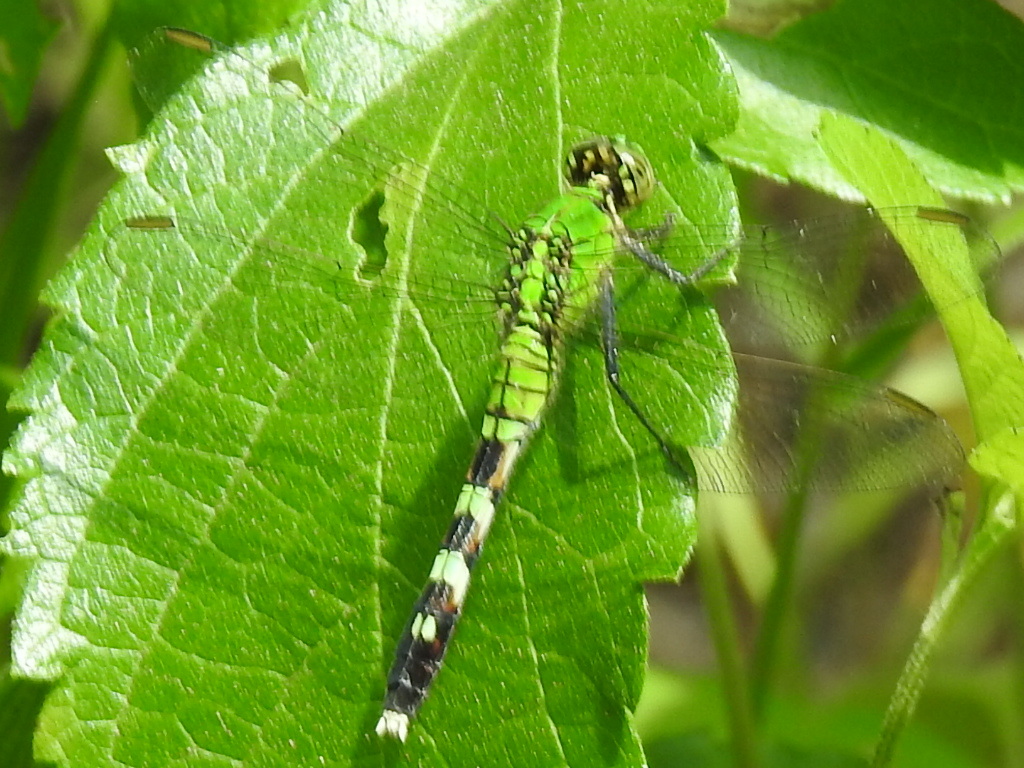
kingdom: Animalia
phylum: Arthropoda
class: Insecta
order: Odonata
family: Libellulidae
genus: Erythemis
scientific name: Erythemis simplicicollis
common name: Eastern pondhawk
